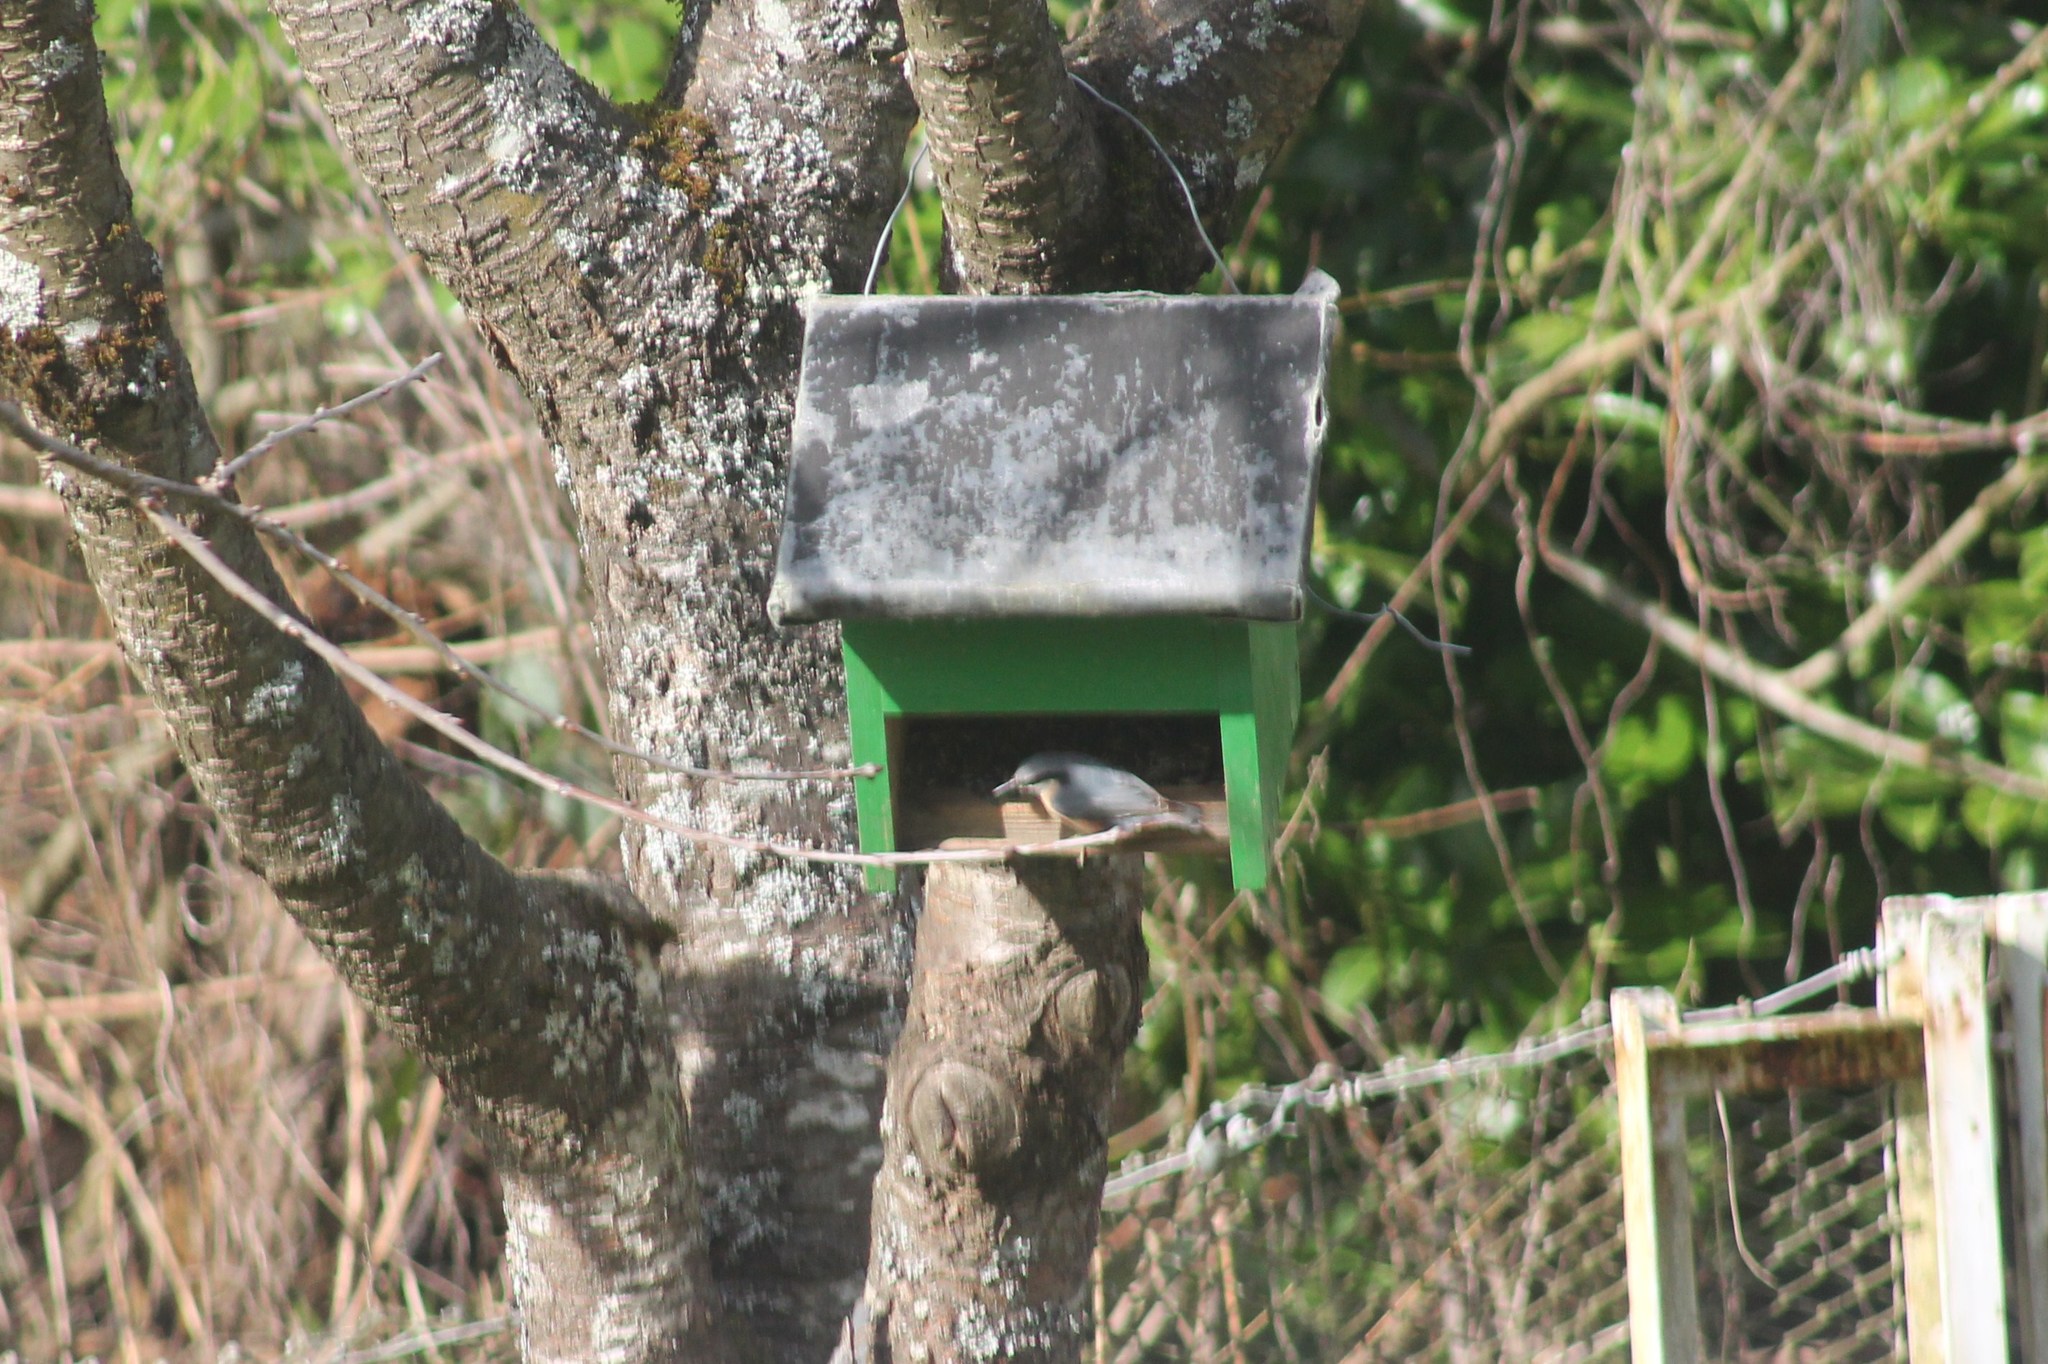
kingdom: Animalia
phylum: Chordata
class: Aves
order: Passeriformes
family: Sittidae
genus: Sitta
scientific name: Sitta europaea
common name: Eurasian nuthatch
